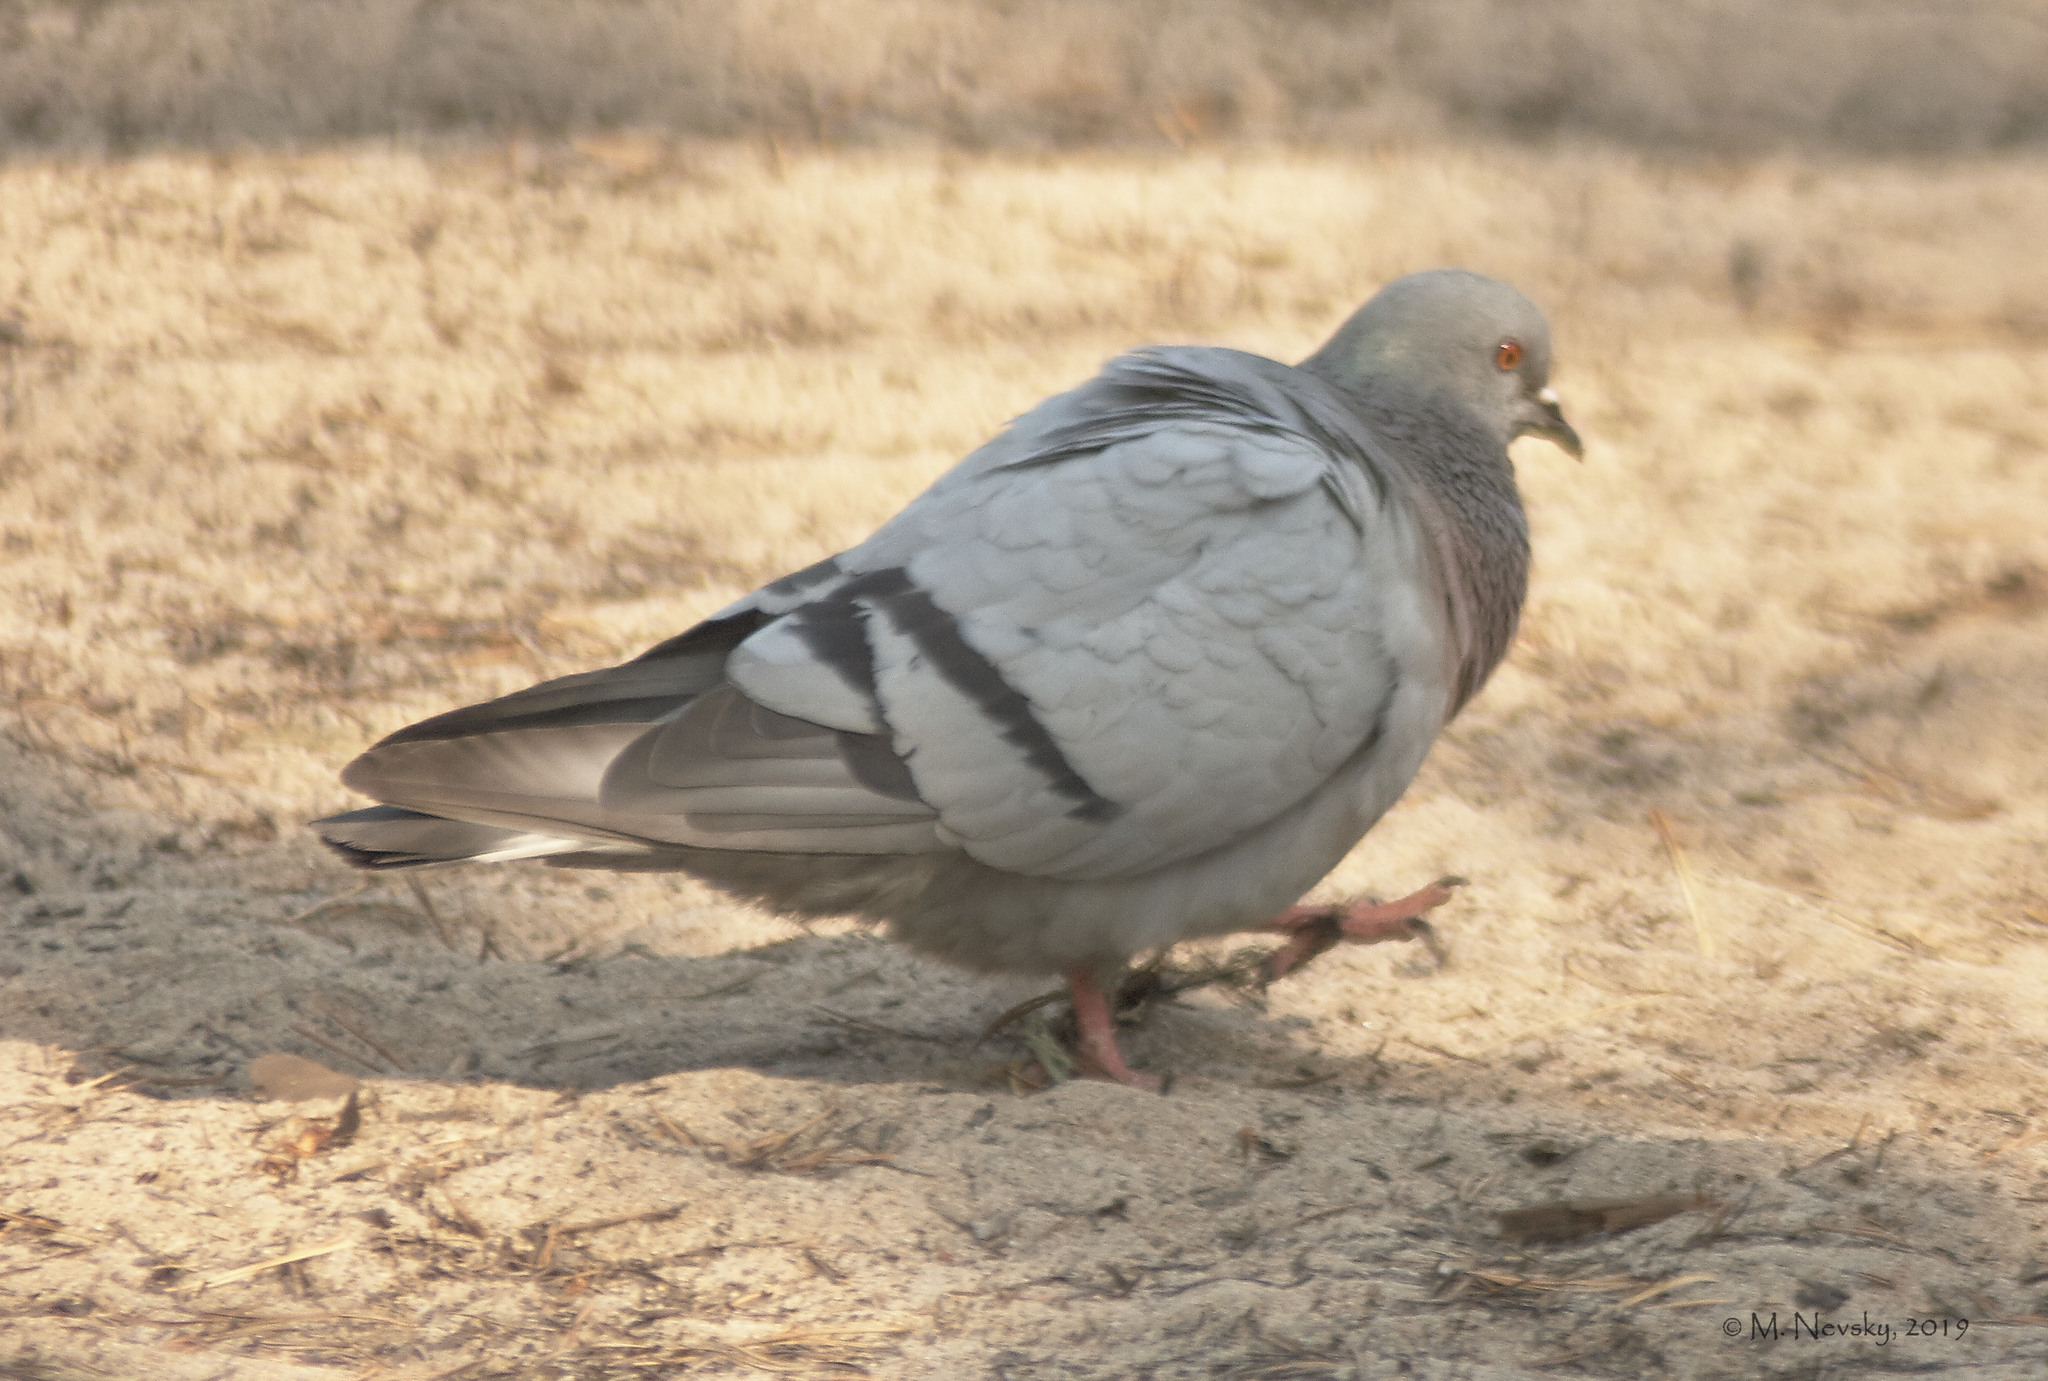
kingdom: Animalia
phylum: Chordata
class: Aves
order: Columbiformes
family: Columbidae
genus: Columba
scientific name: Columba rupestris
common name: Hill pigeon
